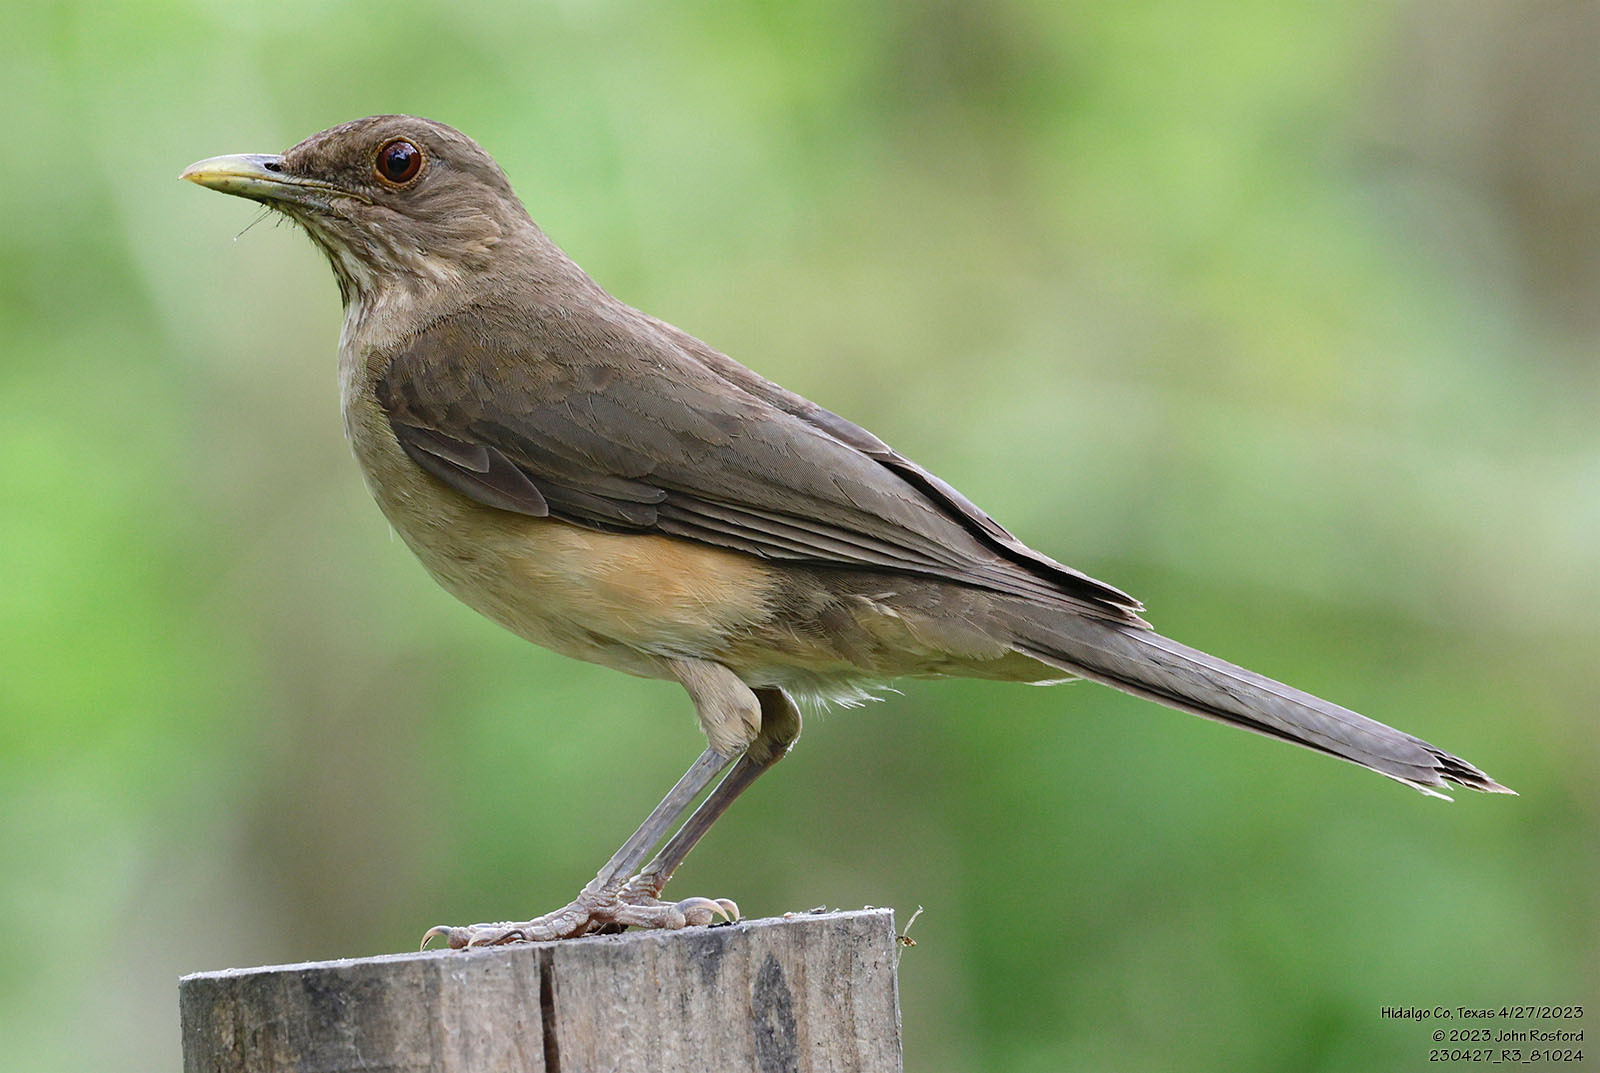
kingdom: Animalia
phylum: Chordata
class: Aves
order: Passeriformes
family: Turdidae
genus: Turdus
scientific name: Turdus grayi
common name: Clay-colored thrush
